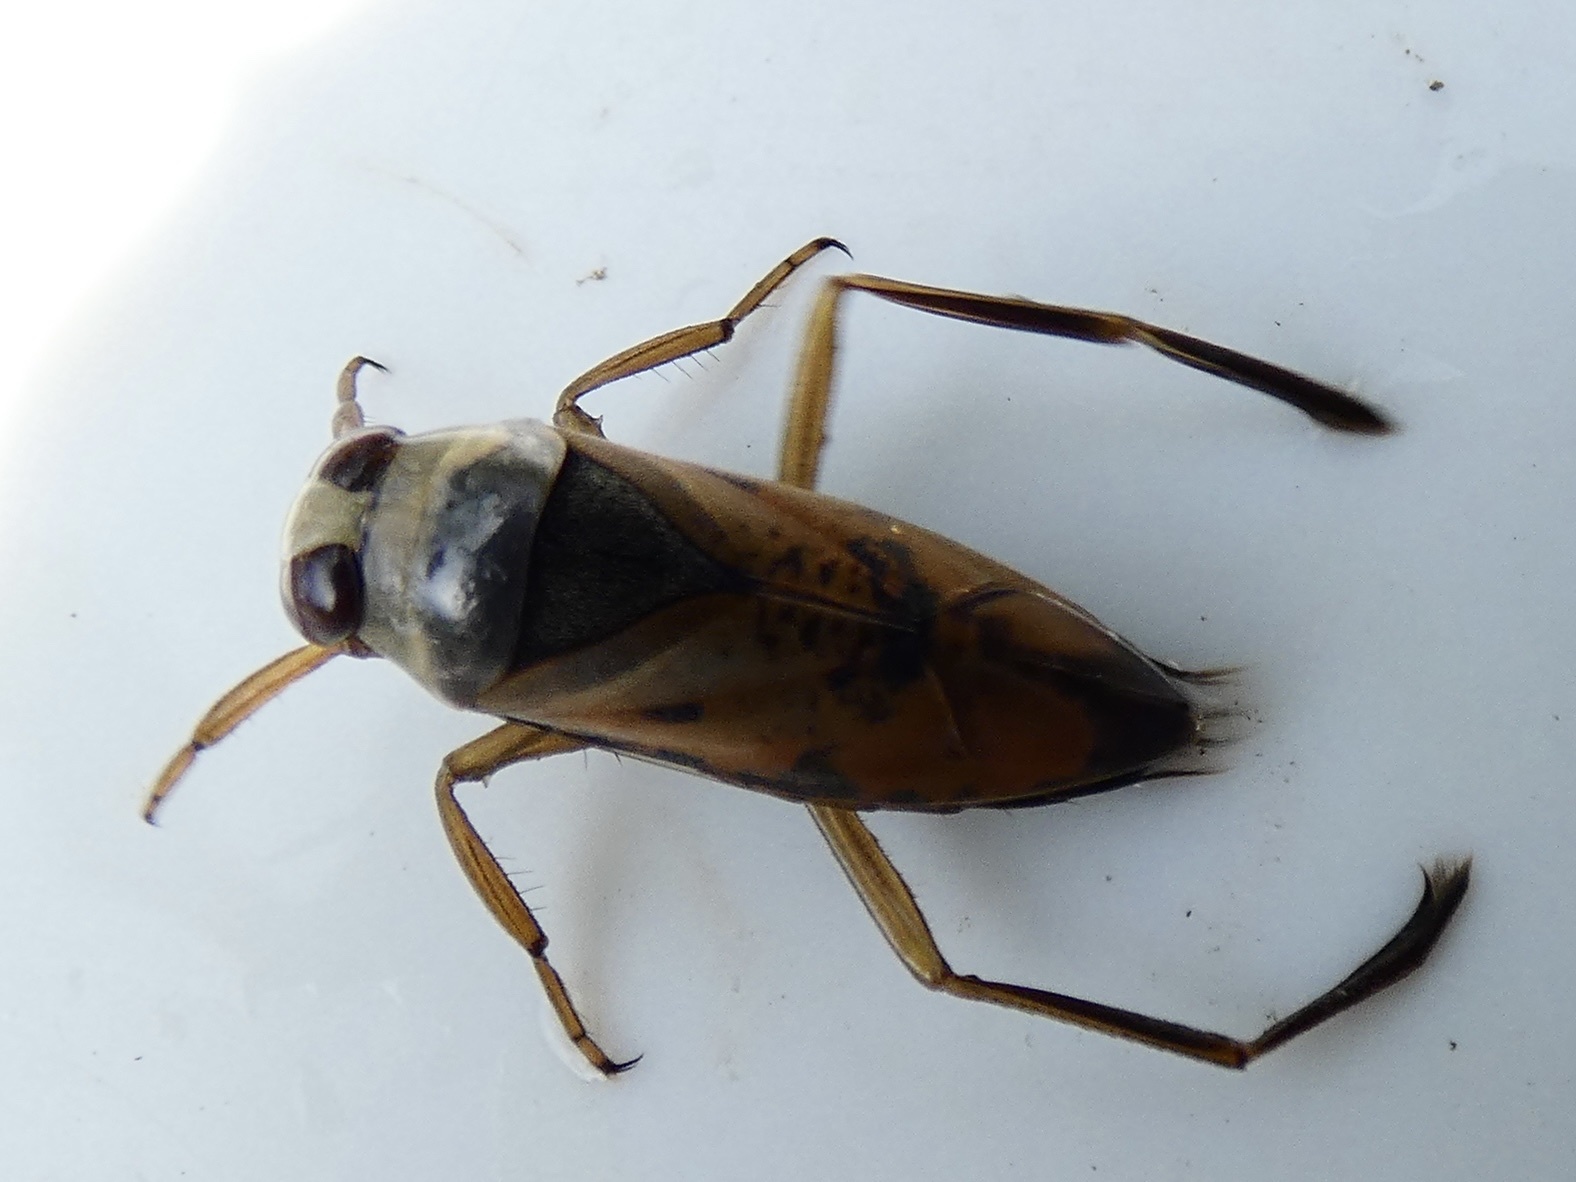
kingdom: Animalia
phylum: Arthropoda
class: Insecta
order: Hemiptera
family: Notonectidae
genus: Notonecta
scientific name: Notonecta glauca
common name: Common water-boatman
